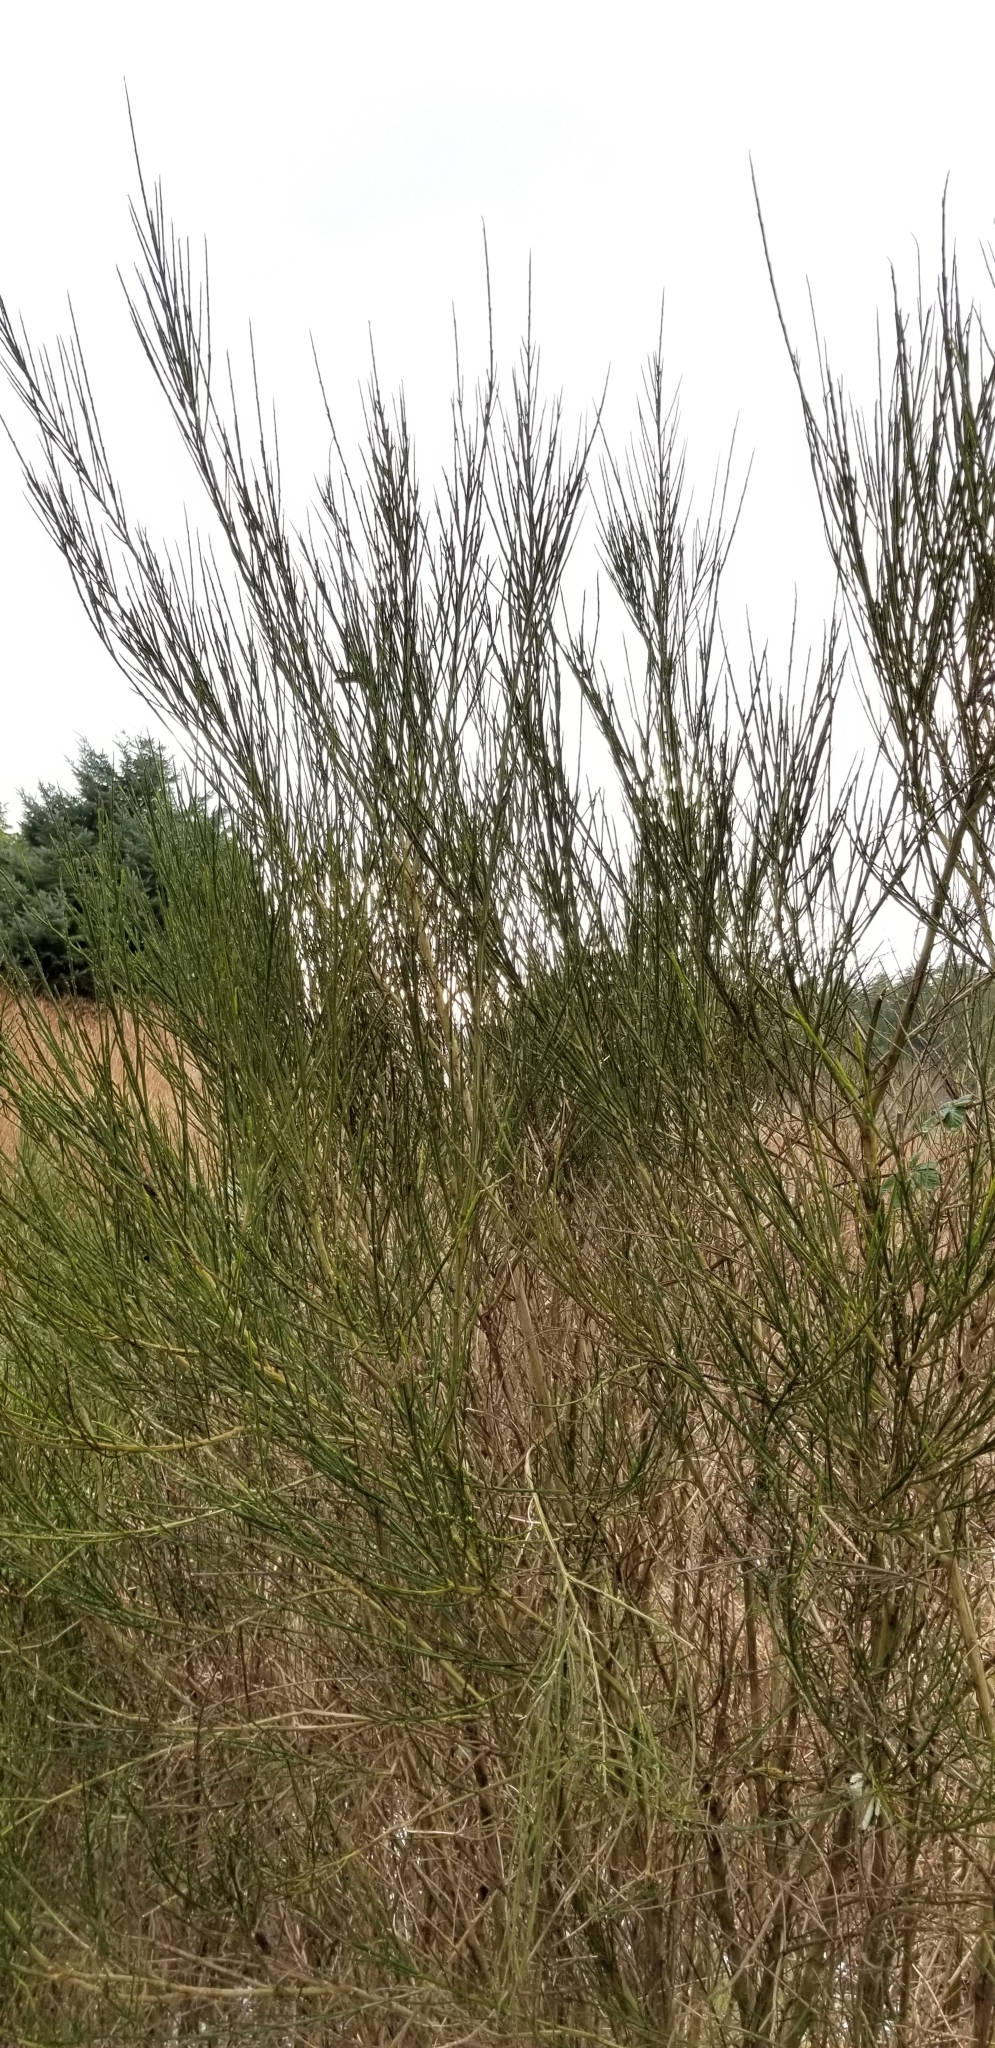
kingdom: Plantae
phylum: Tracheophyta
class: Magnoliopsida
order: Fabales
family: Fabaceae
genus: Cytisus
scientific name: Cytisus scoparius
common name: Scotch broom
